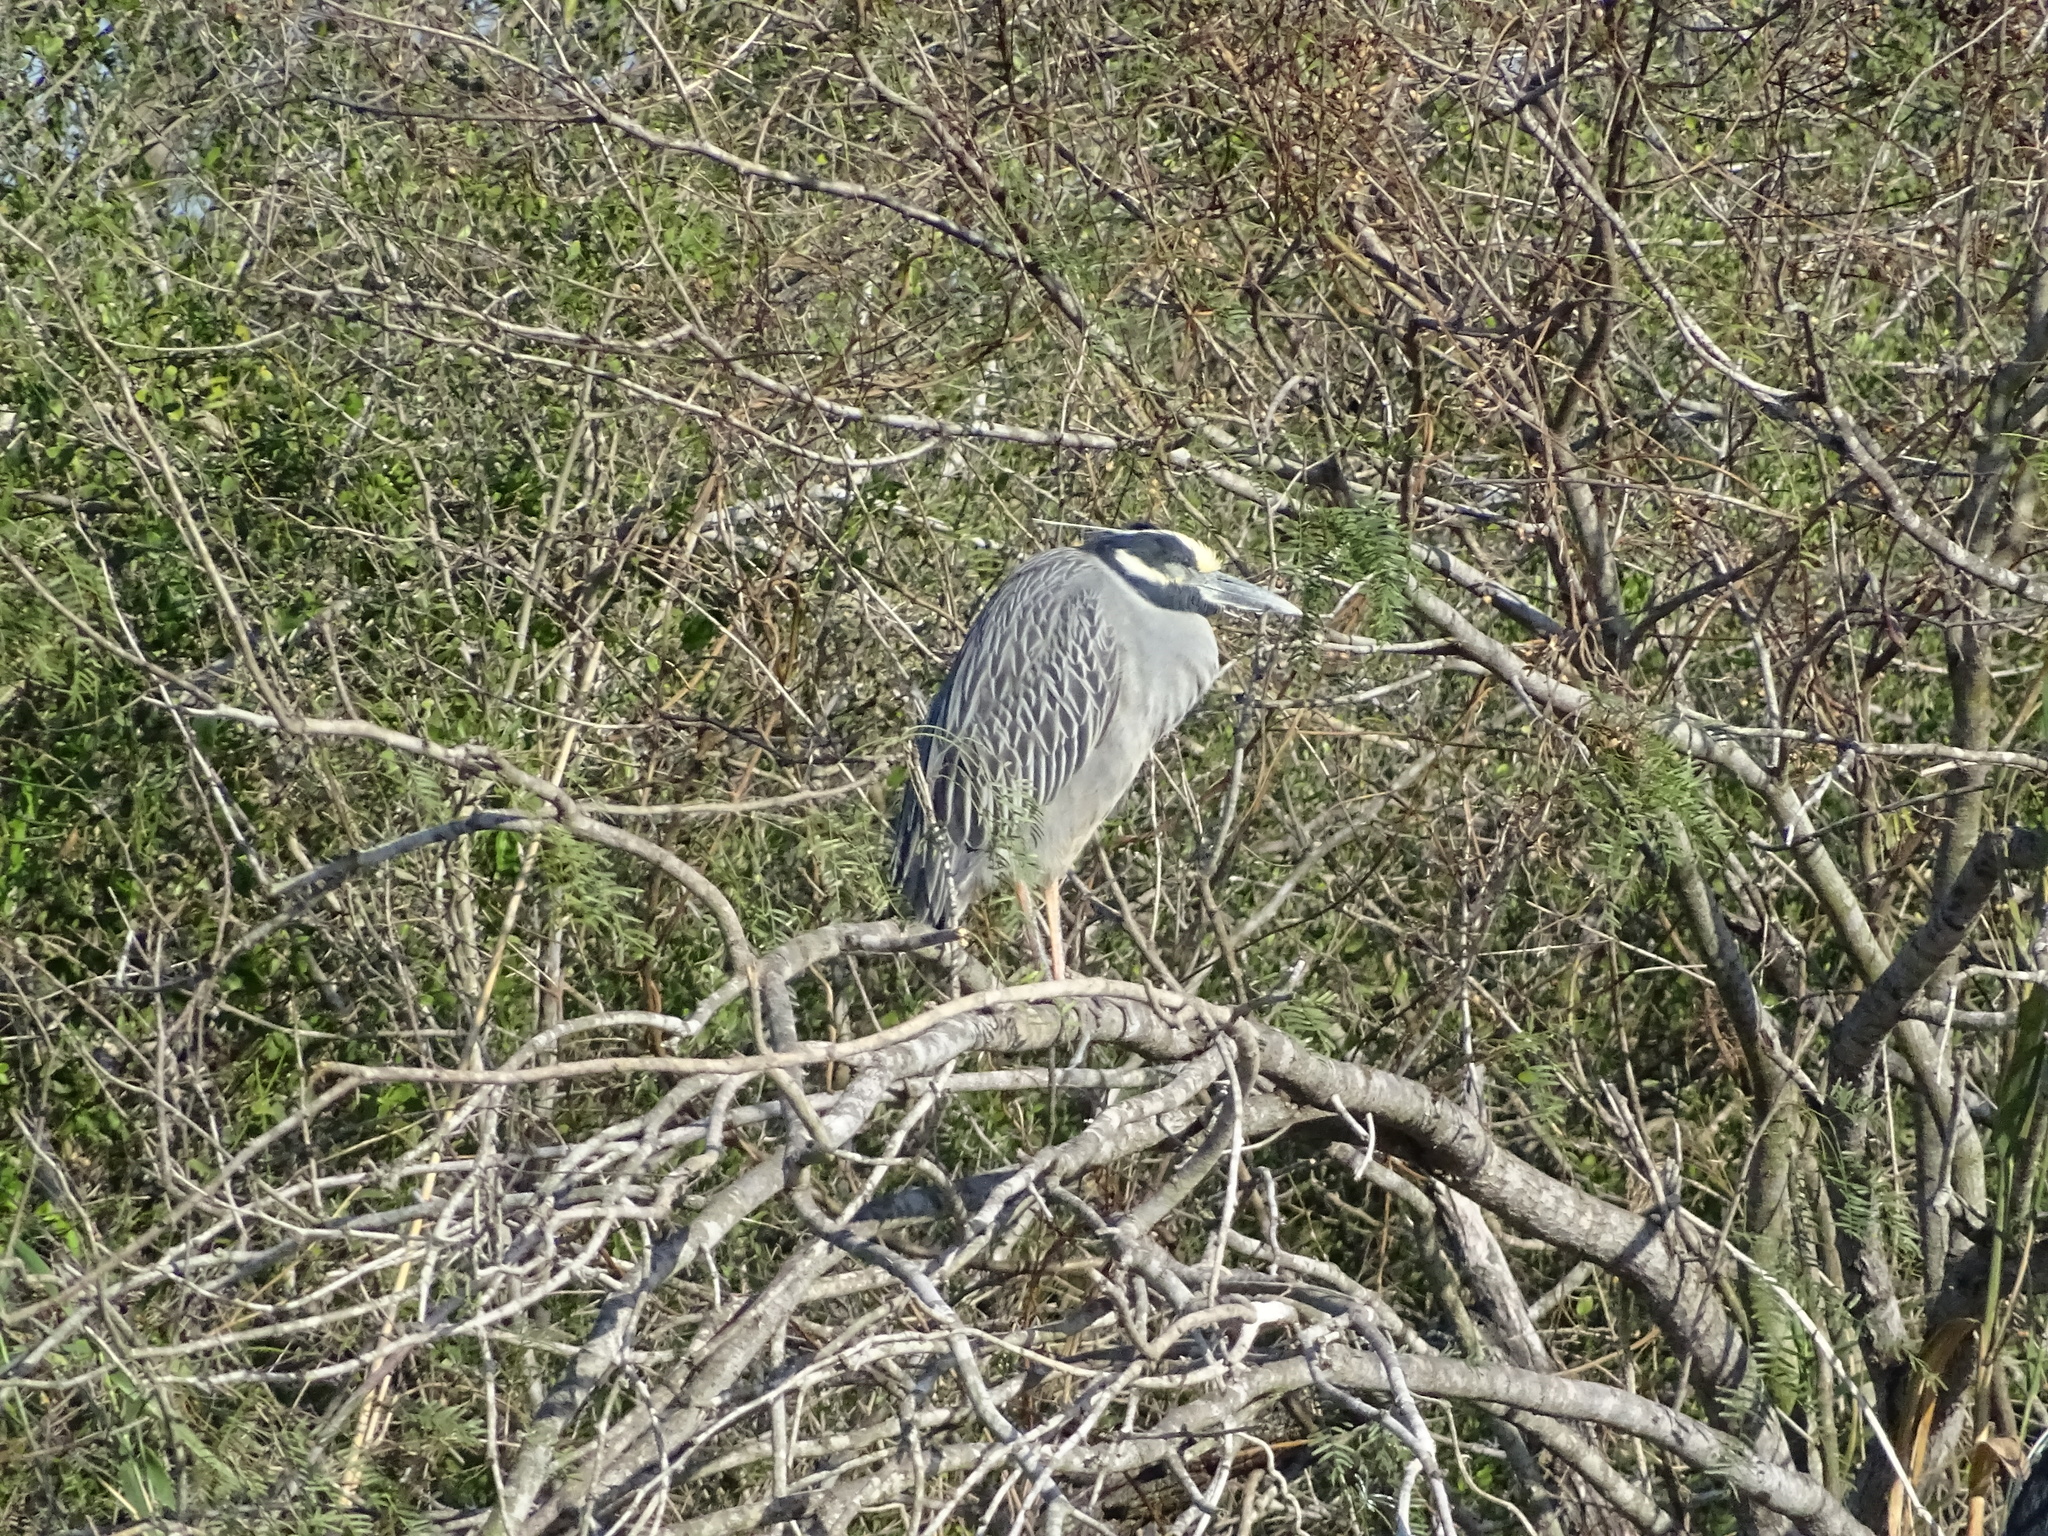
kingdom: Animalia
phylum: Chordata
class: Aves
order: Pelecaniformes
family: Ardeidae
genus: Nyctanassa
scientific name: Nyctanassa violacea
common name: Yellow-crowned night heron
